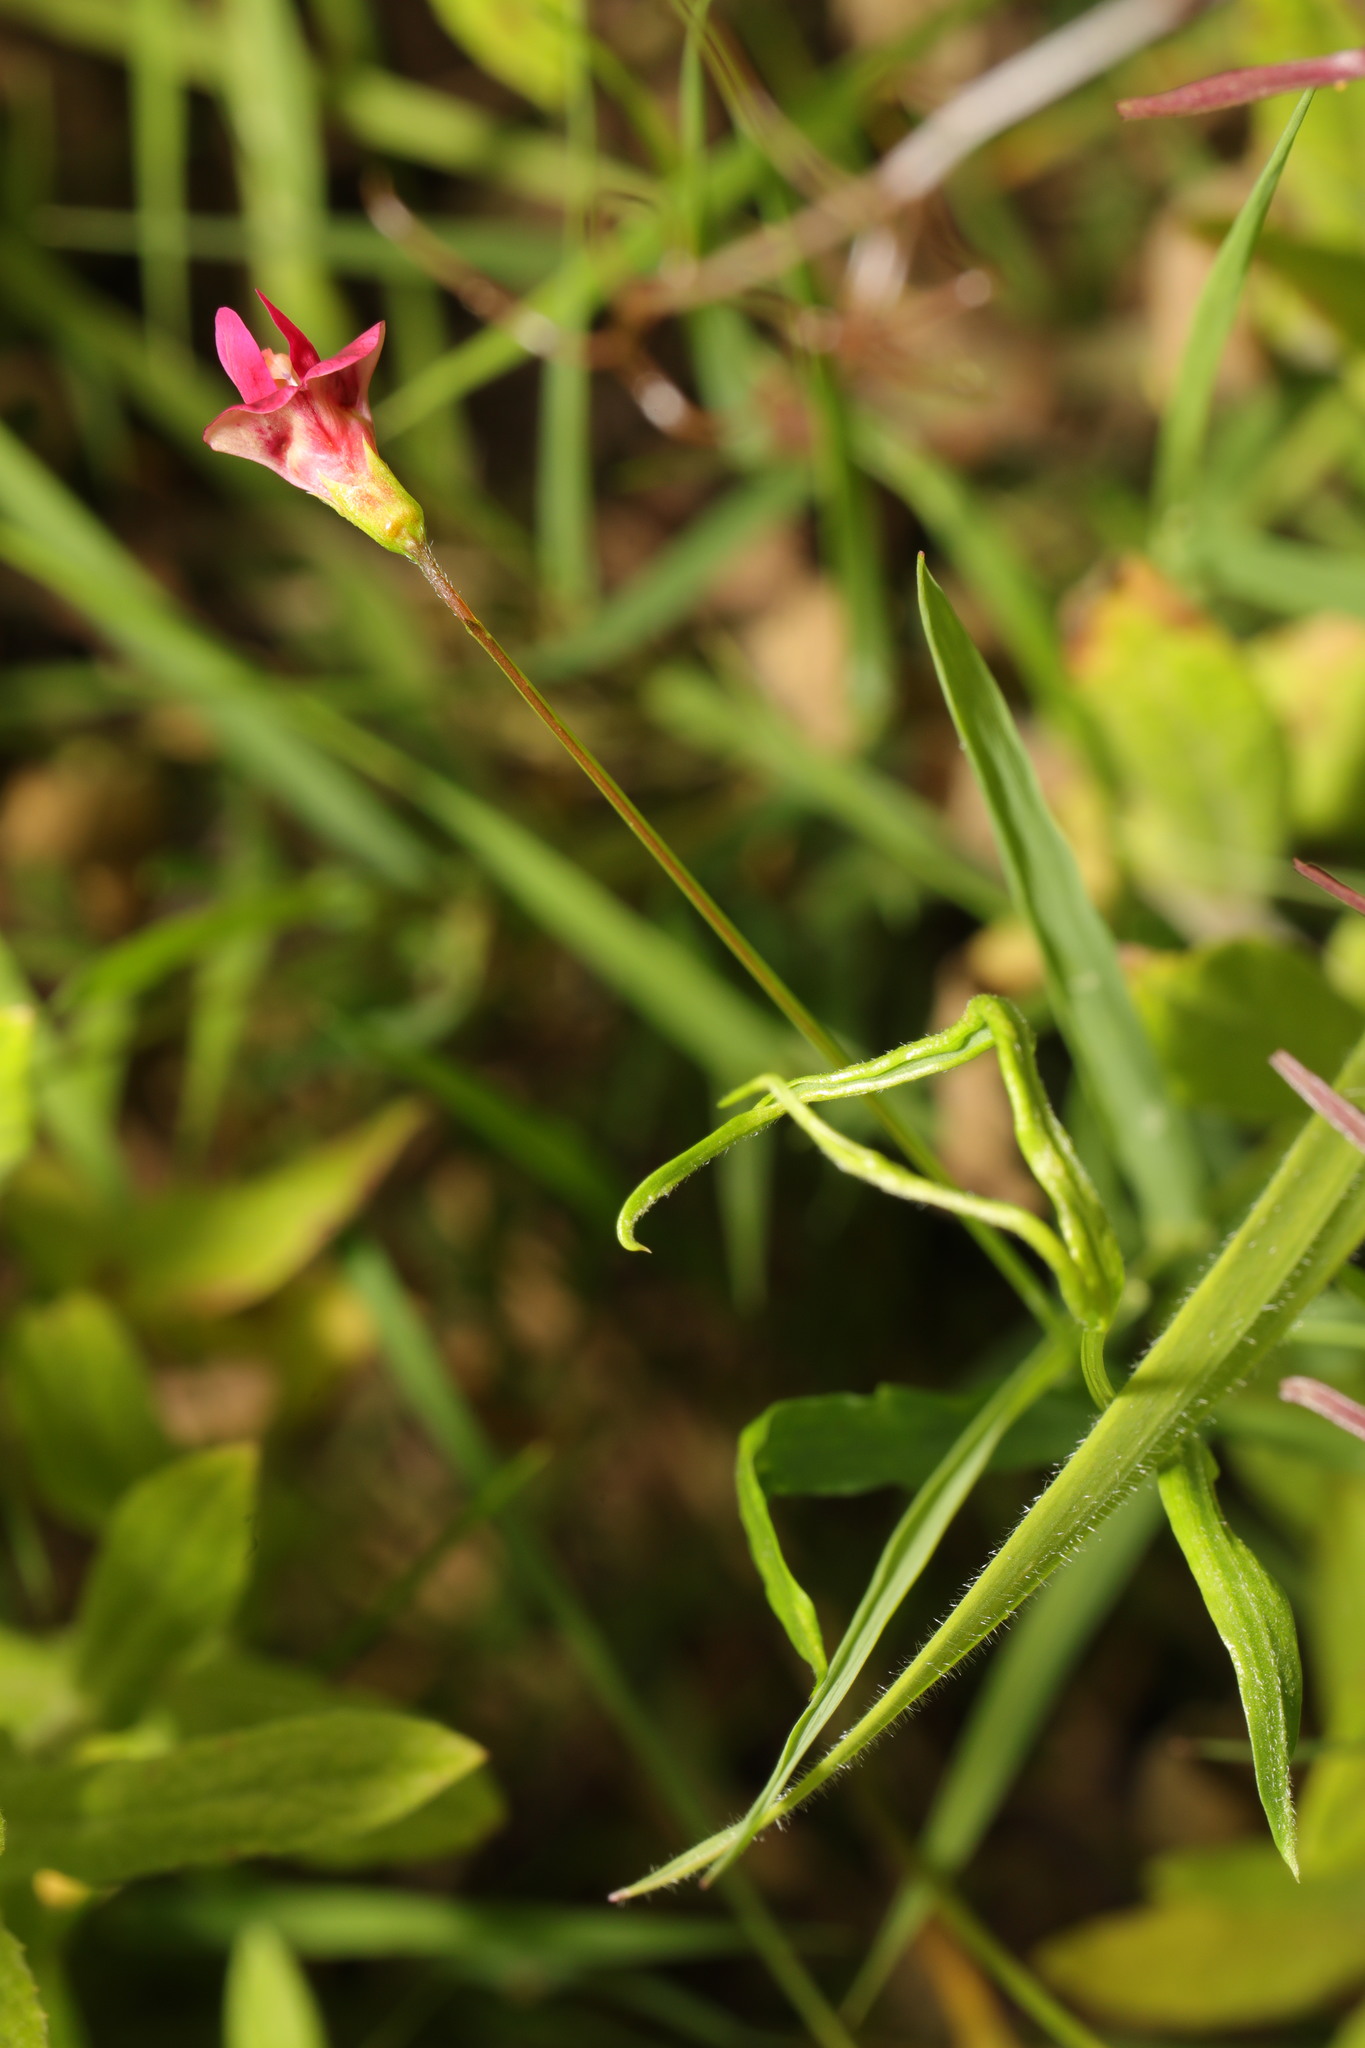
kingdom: Plantae
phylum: Tracheophyta
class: Magnoliopsida
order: Fabales
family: Fabaceae
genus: Lathyrus
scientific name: Lathyrus nissolia
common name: Grass vetchling
